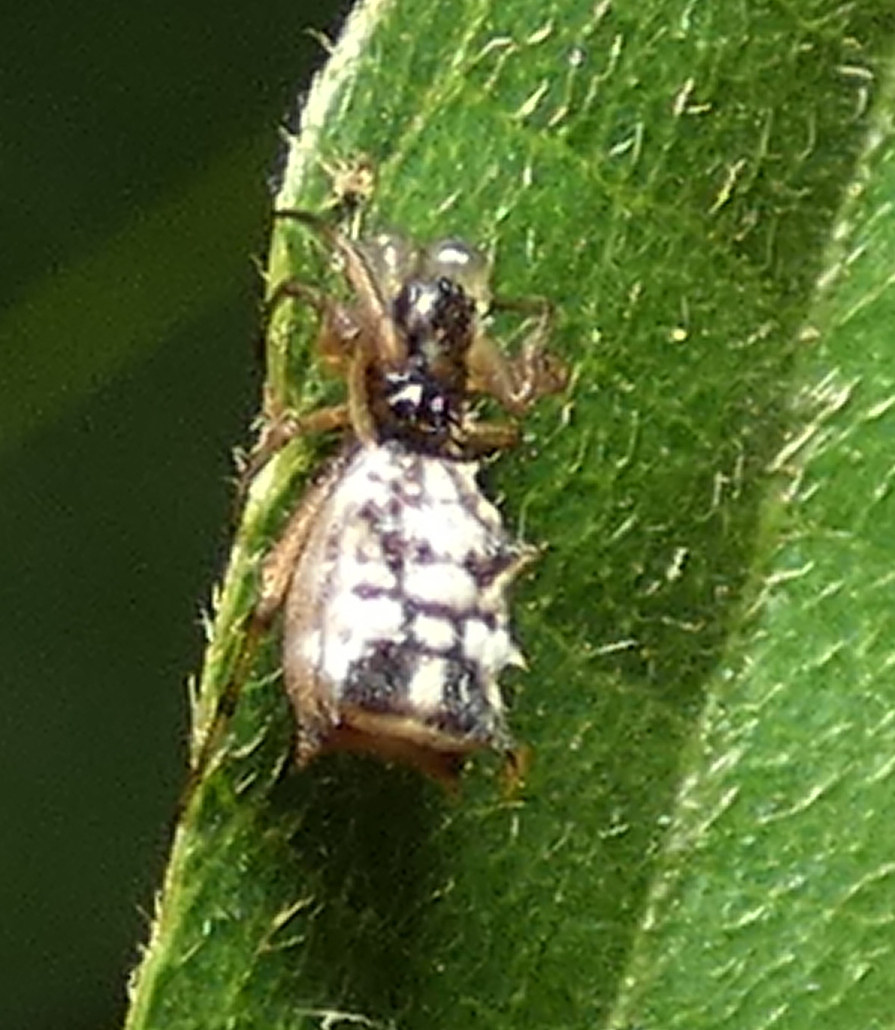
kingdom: Animalia
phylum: Arthropoda
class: Arachnida
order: Araneae
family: Araneidae
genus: Micrathena
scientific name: Micrathena picta
